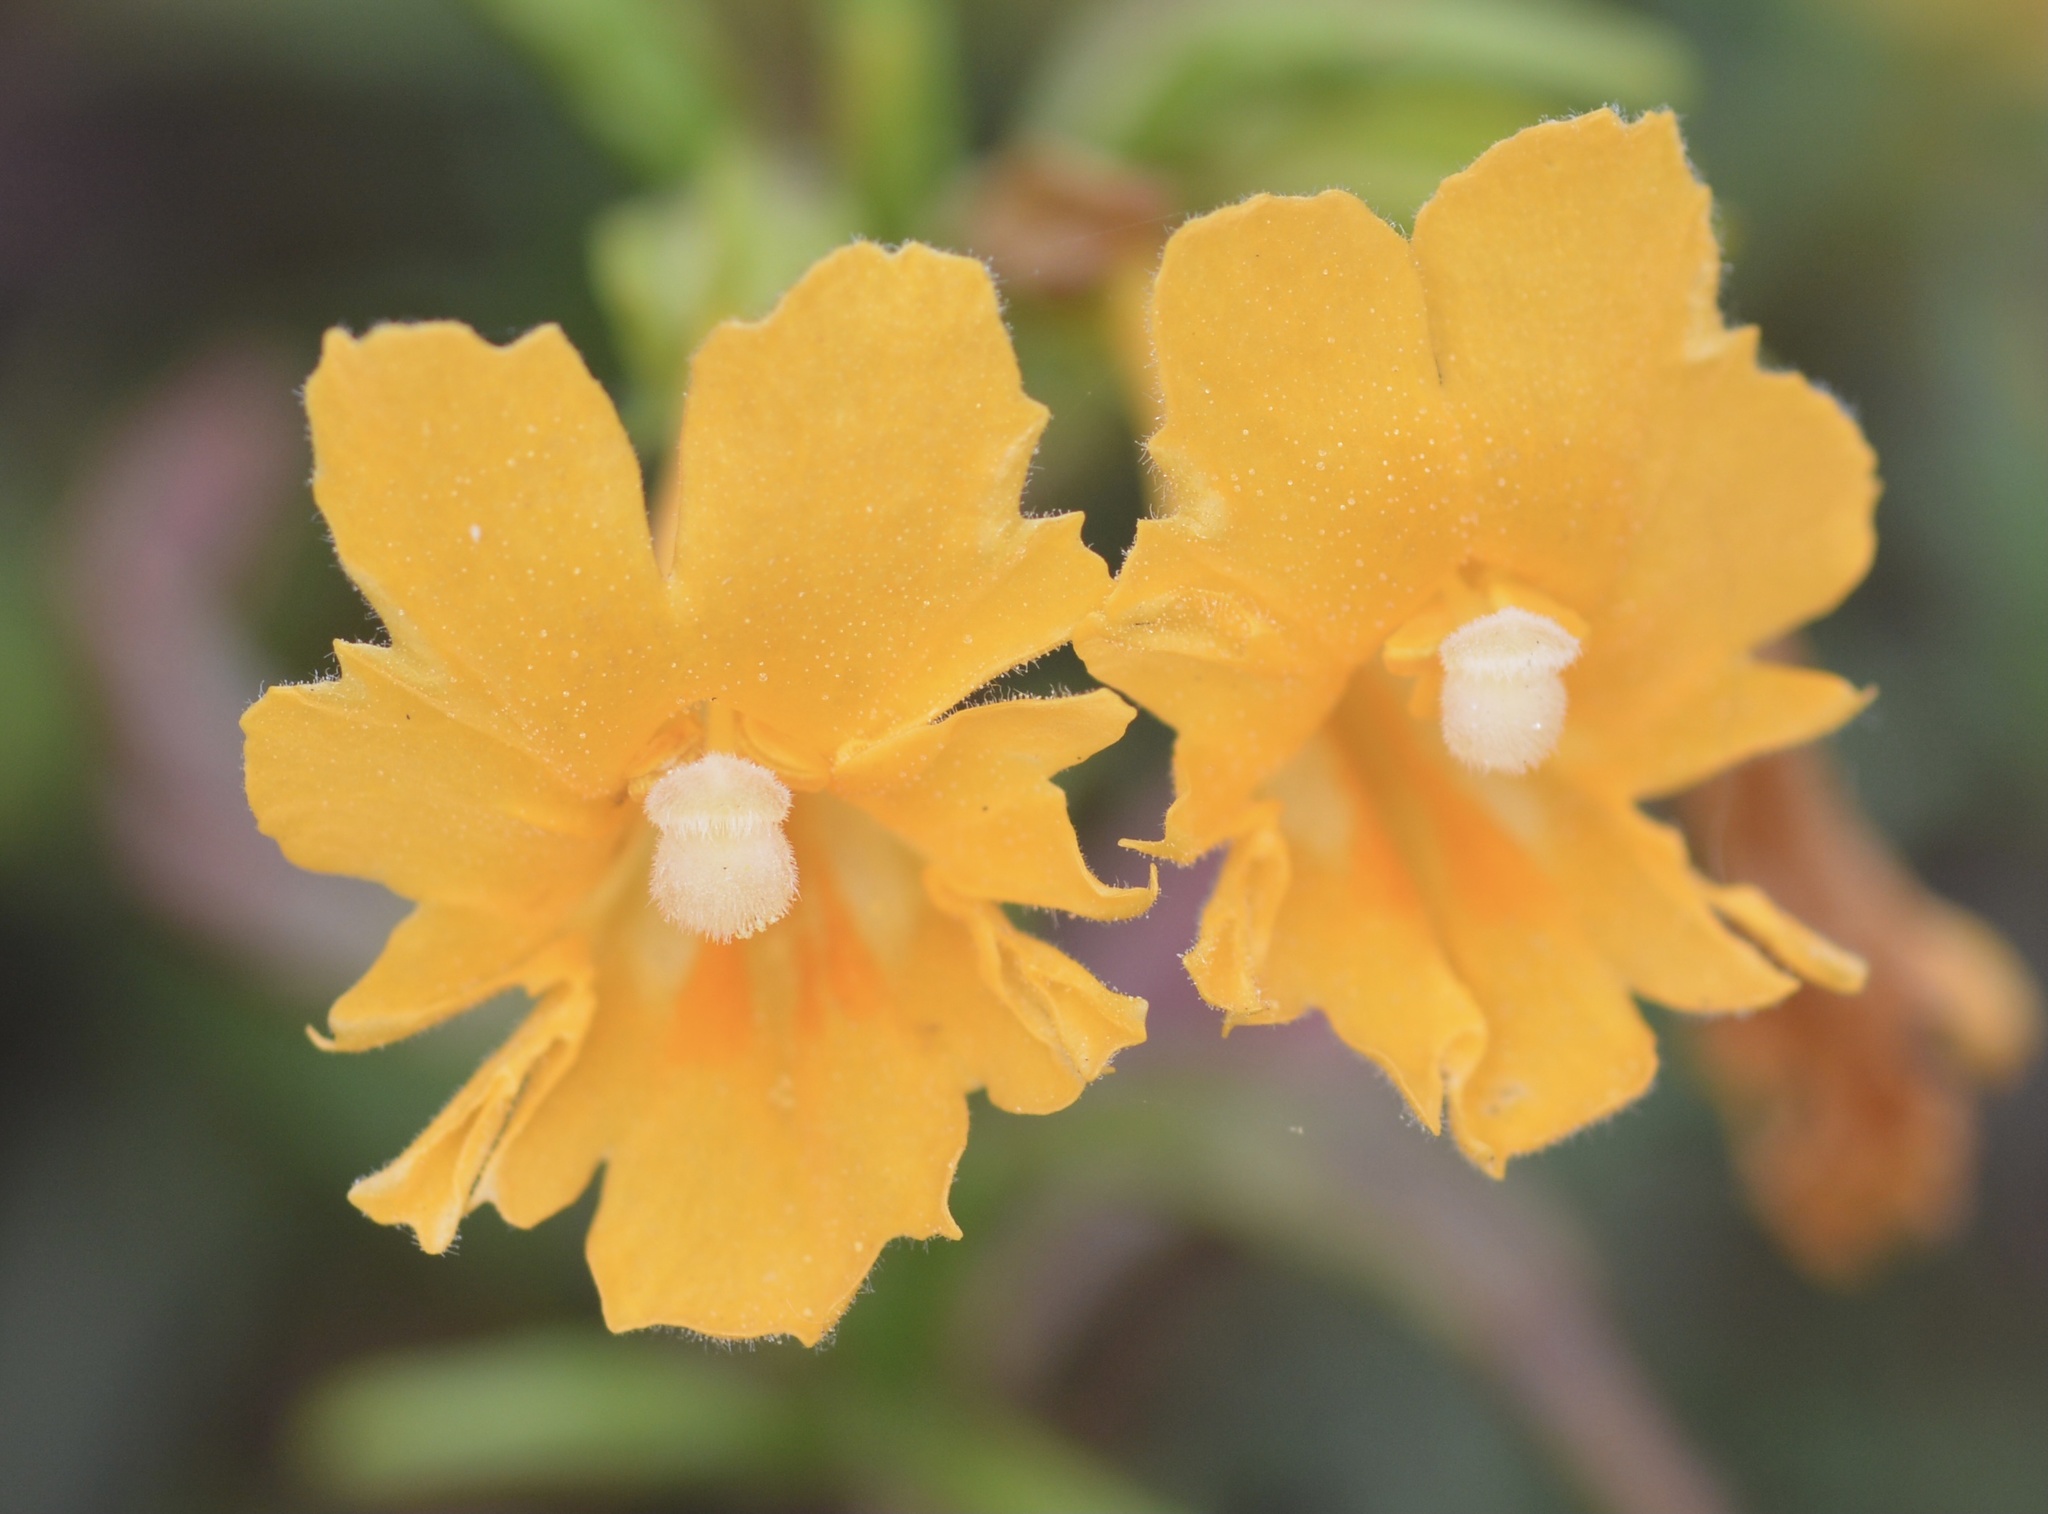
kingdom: Plantae
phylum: Tracheophyta
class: Magnoliopsida
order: Lamiales
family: Phrymaceae
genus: Diplacus
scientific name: Diplacus aurantiacus
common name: Bush monkey-flower
